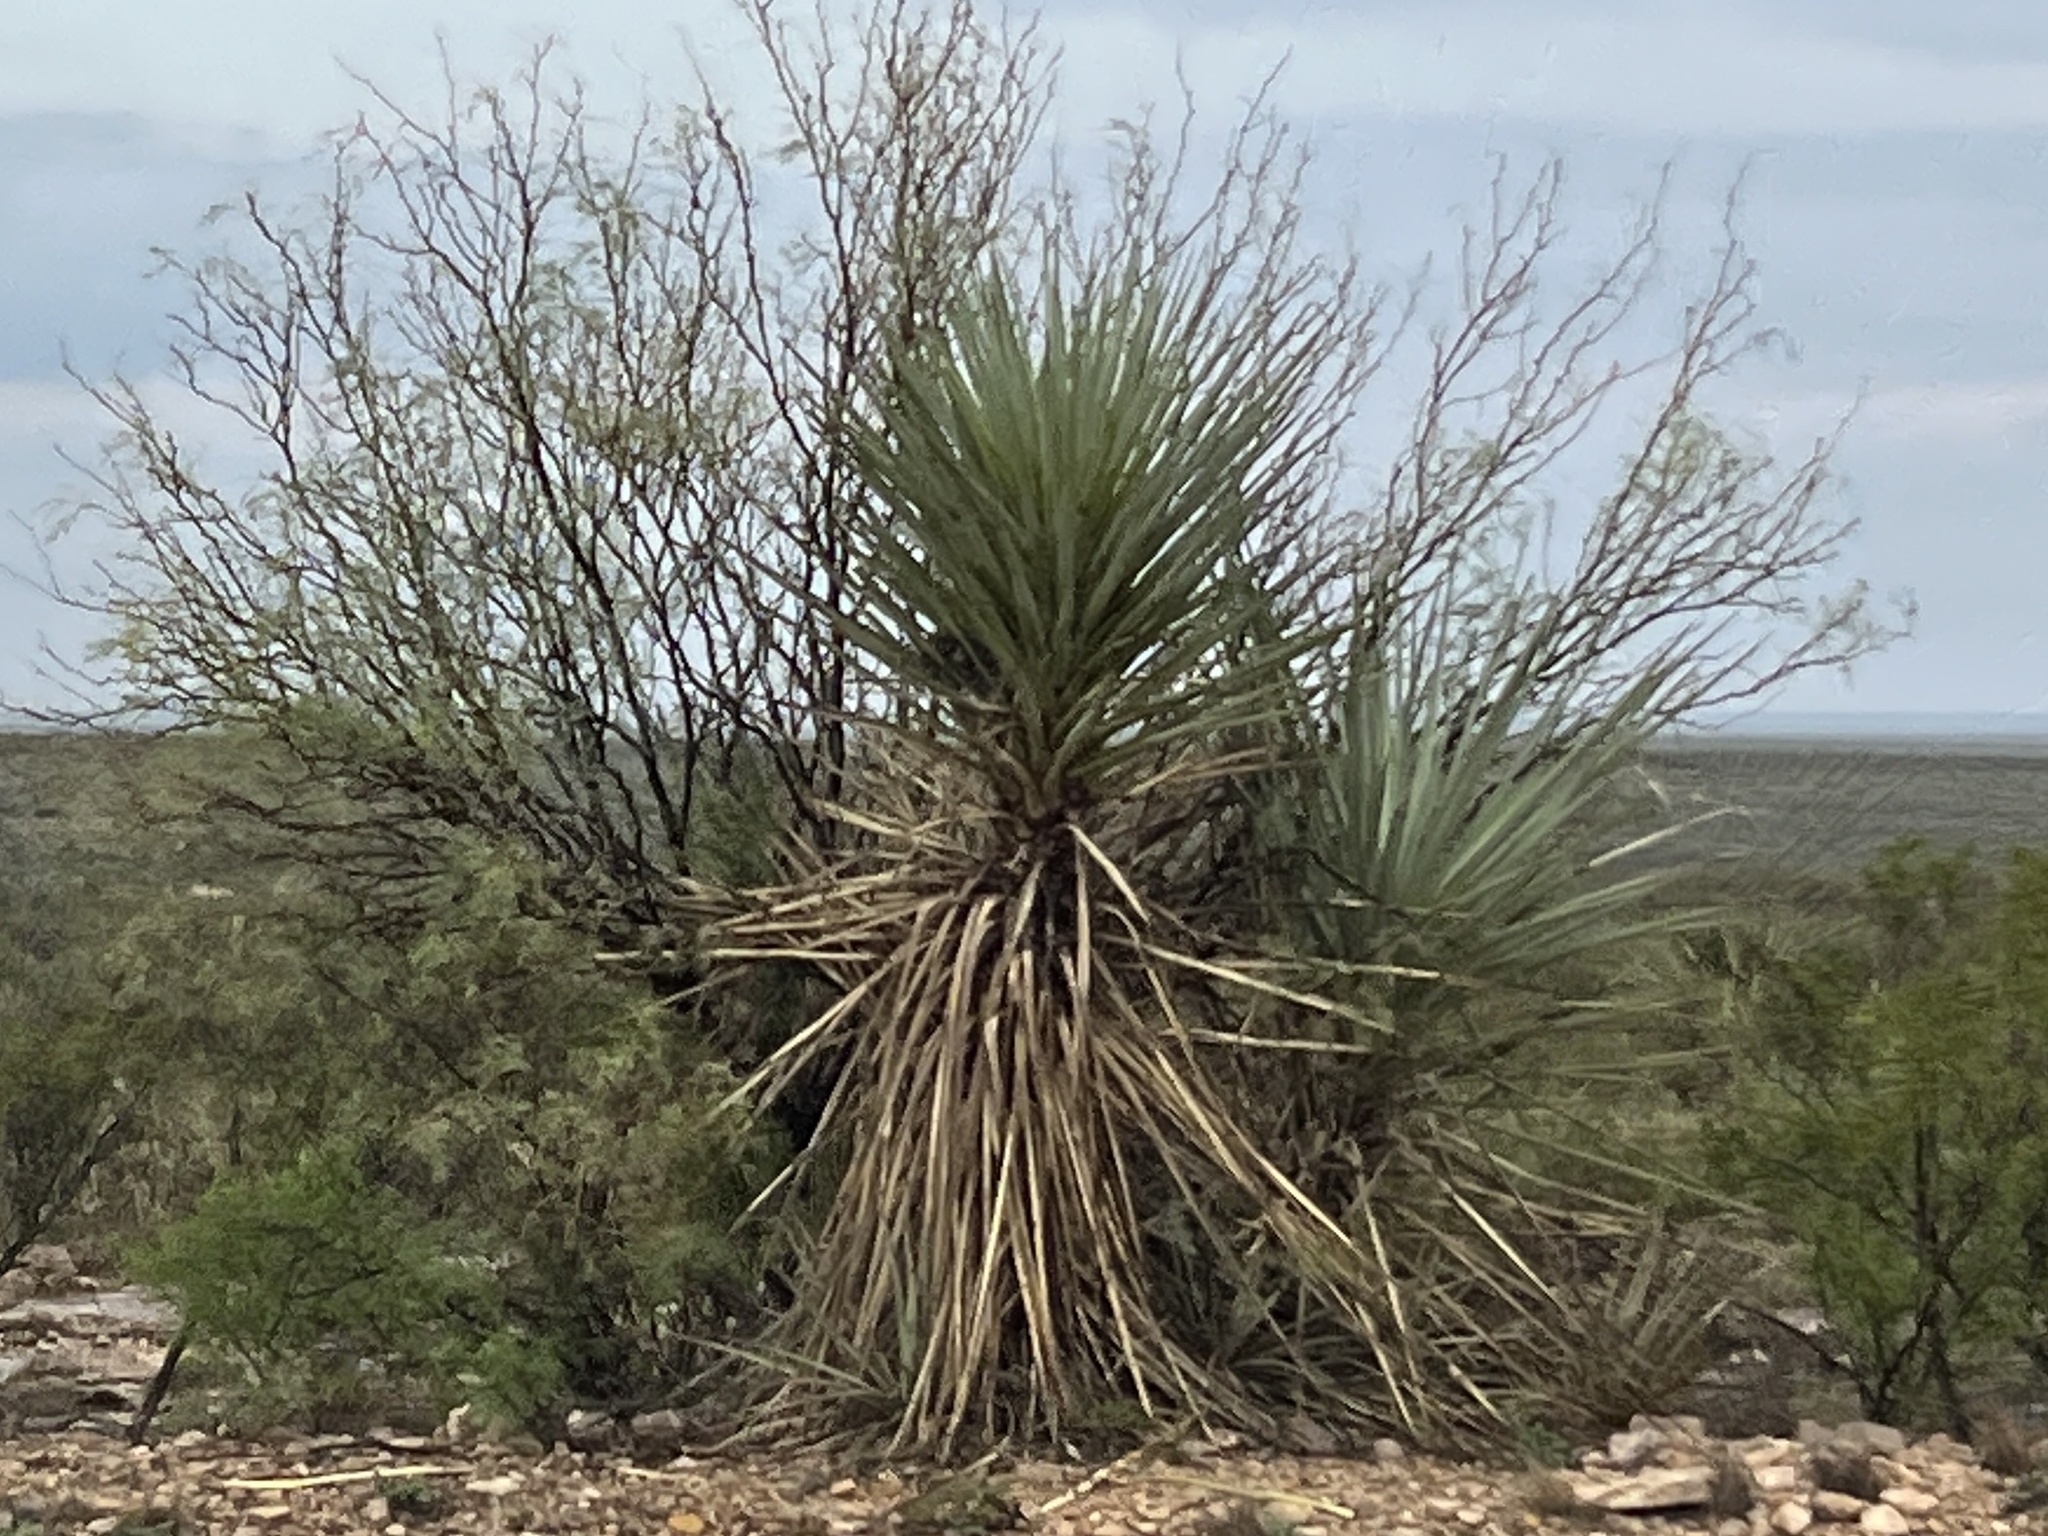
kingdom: Plantae
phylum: Tracheophyta
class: Liliopsida
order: Asparagales
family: Asparagaceae
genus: Yucca
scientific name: Yucca treculiana
